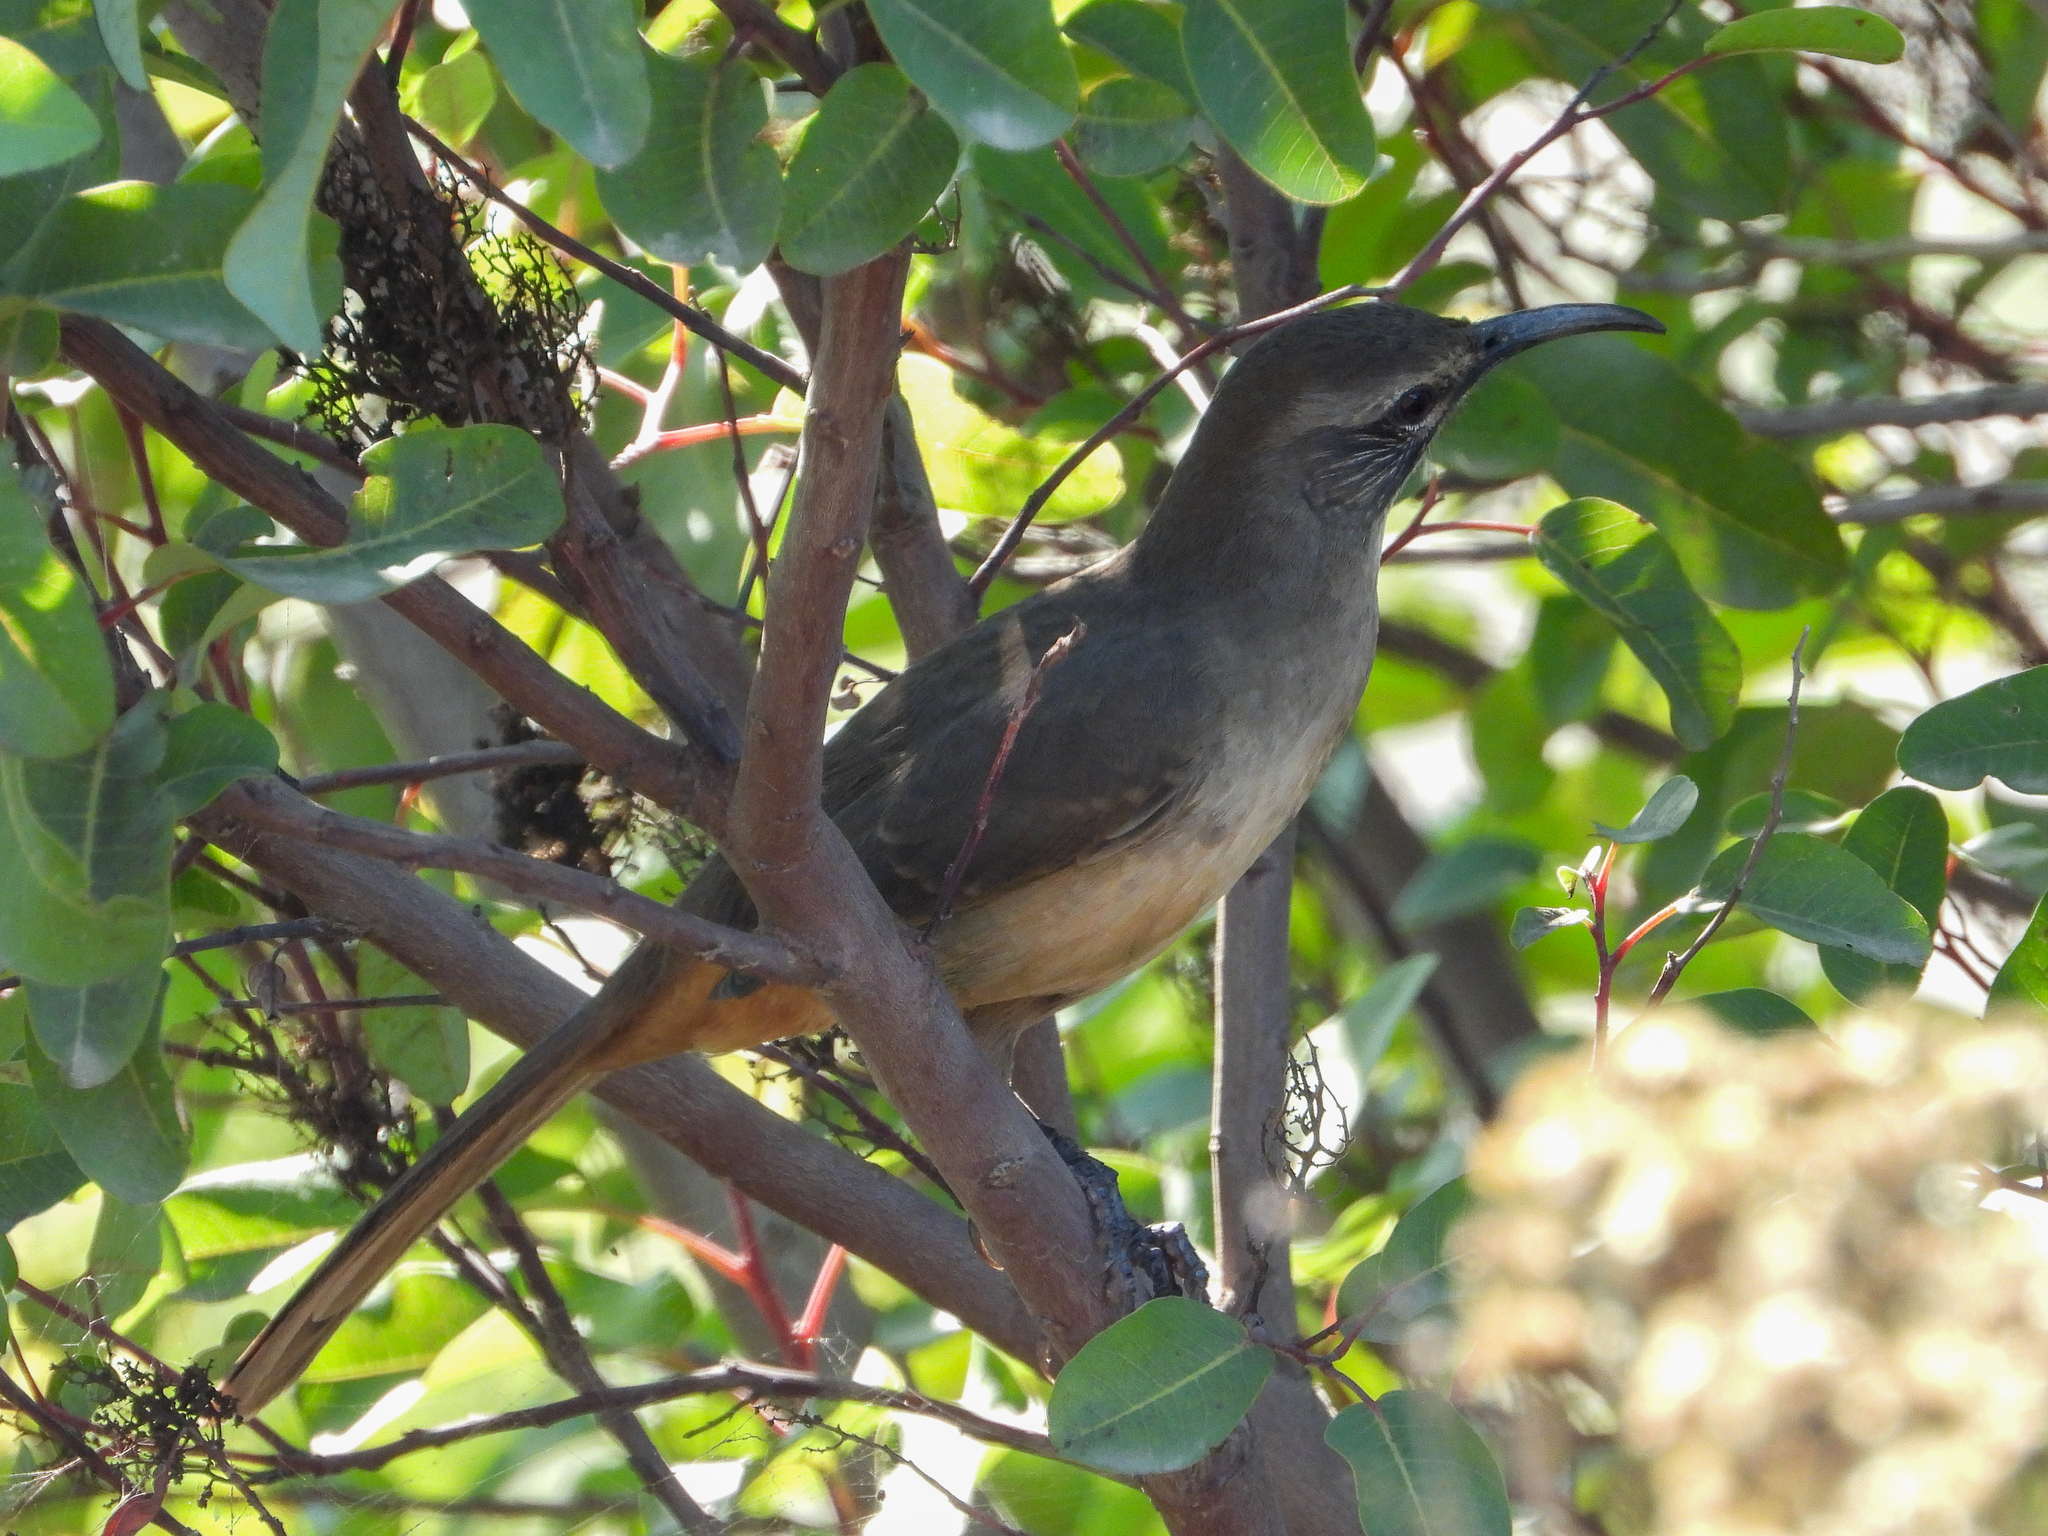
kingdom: Animalia
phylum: Chordata
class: Aves
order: Passeriformes
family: Mimidae
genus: Toxostoma
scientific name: Toxostoma redivivum
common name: California thrasher
